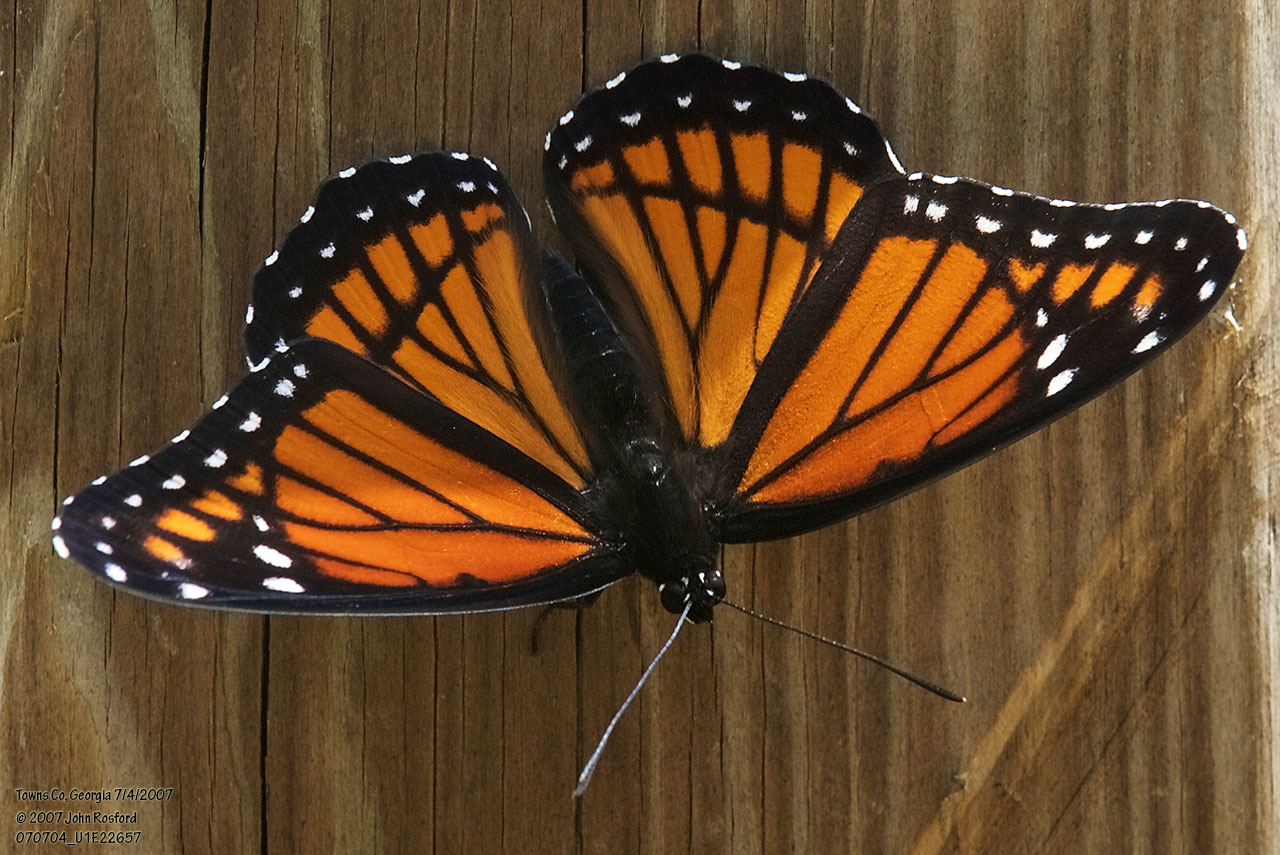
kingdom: Animalia
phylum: Arthropoda
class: Insecta
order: Lepidoptera
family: Nymphalidae
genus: Limenitis
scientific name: Limenitis archippus
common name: Viceroy
